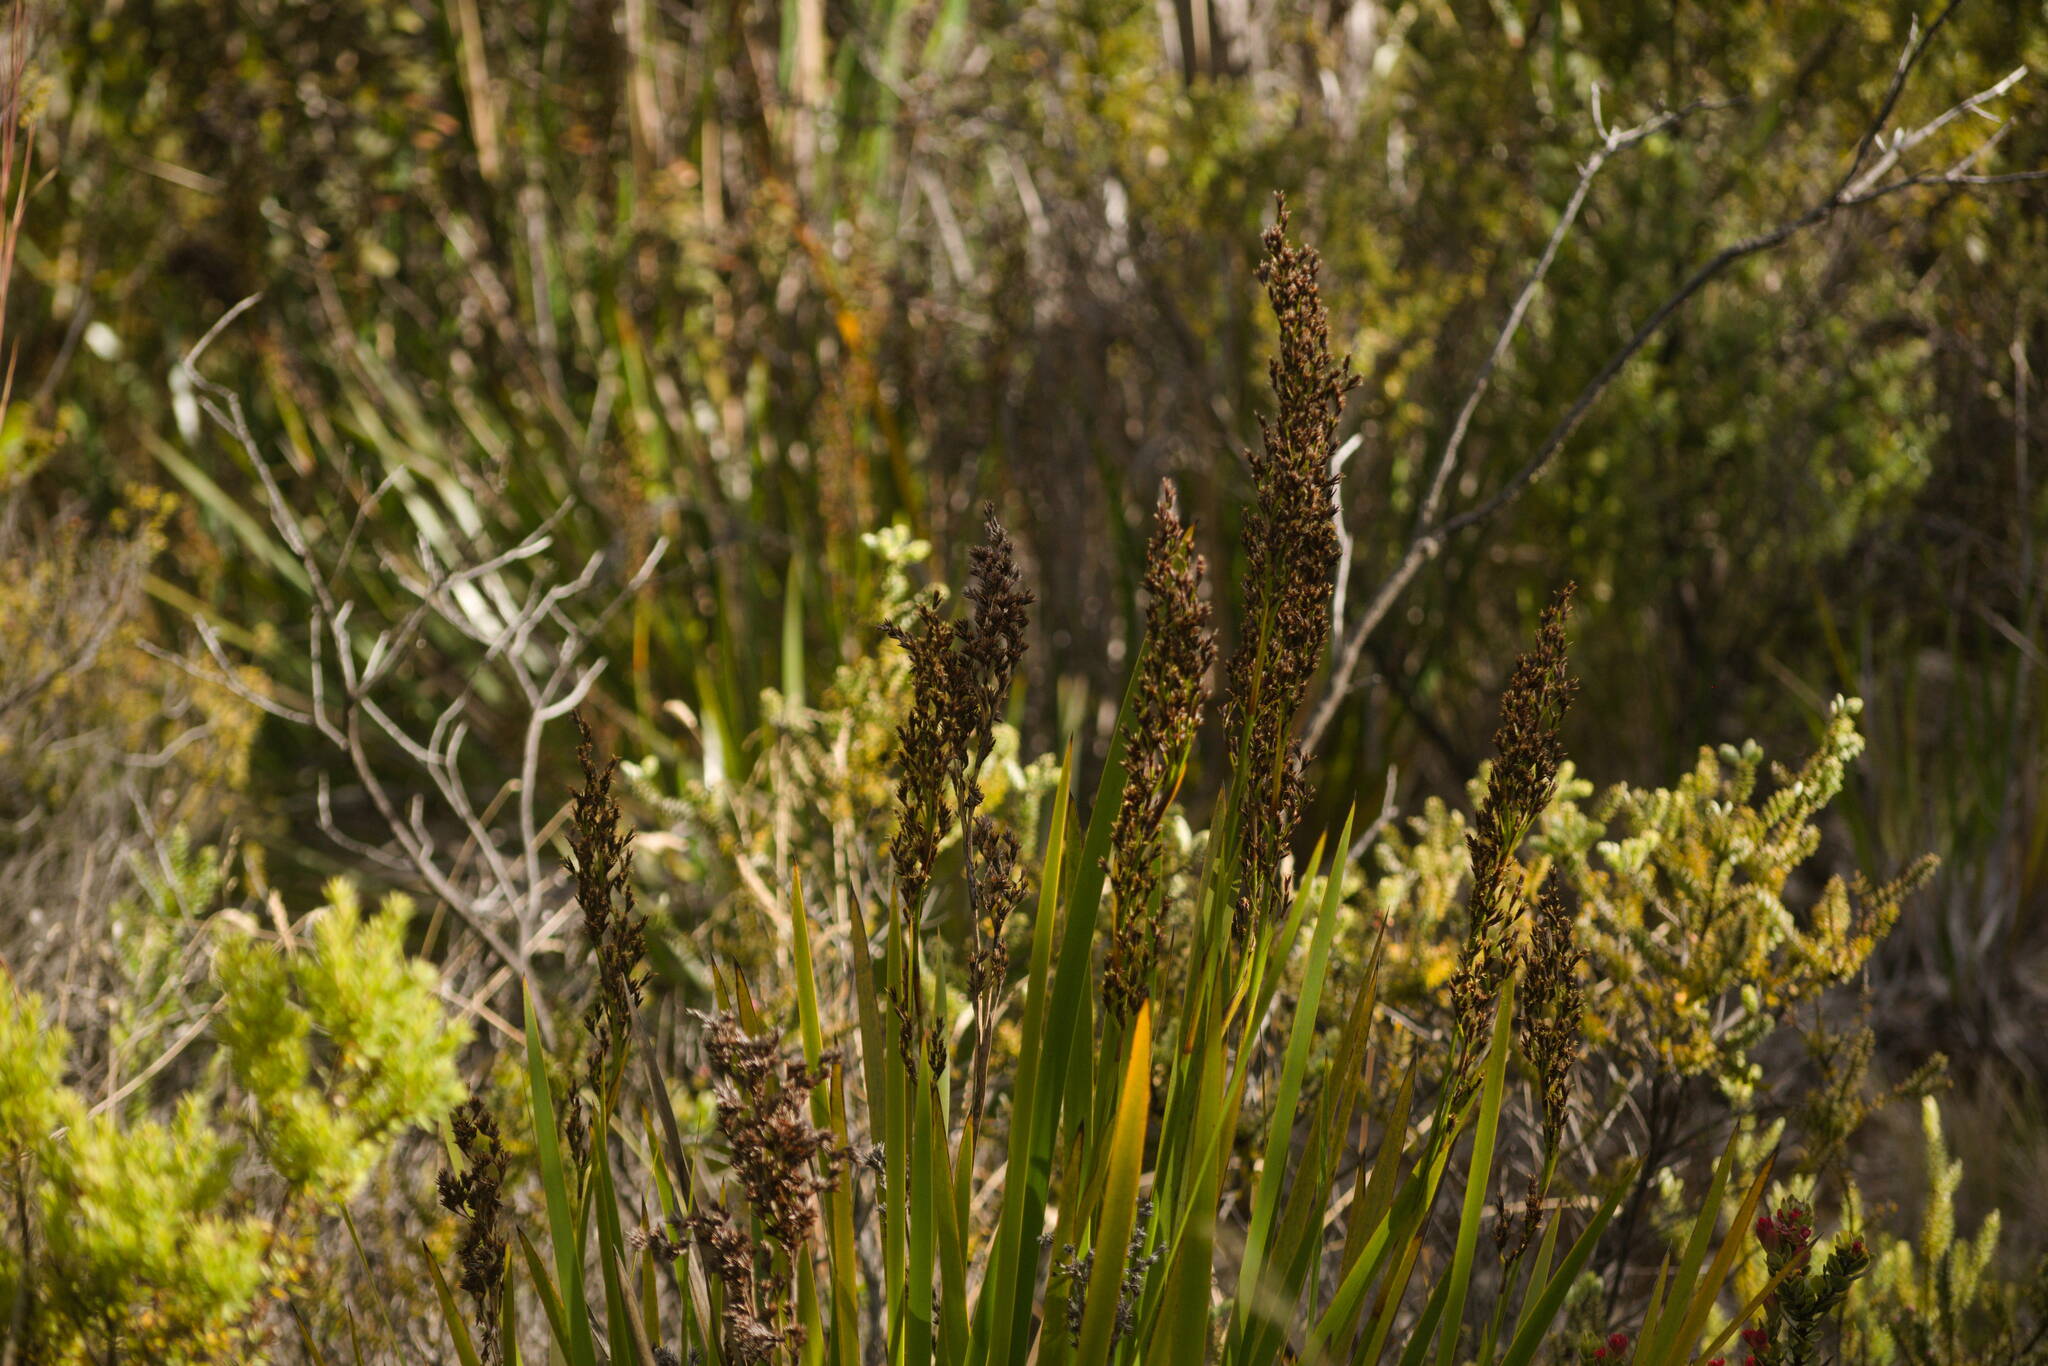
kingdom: Plantae
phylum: Tracheophyta
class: Liliopsida
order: Poales
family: Cyperaceae
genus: Machaerina
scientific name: Machaerina angustifolia
